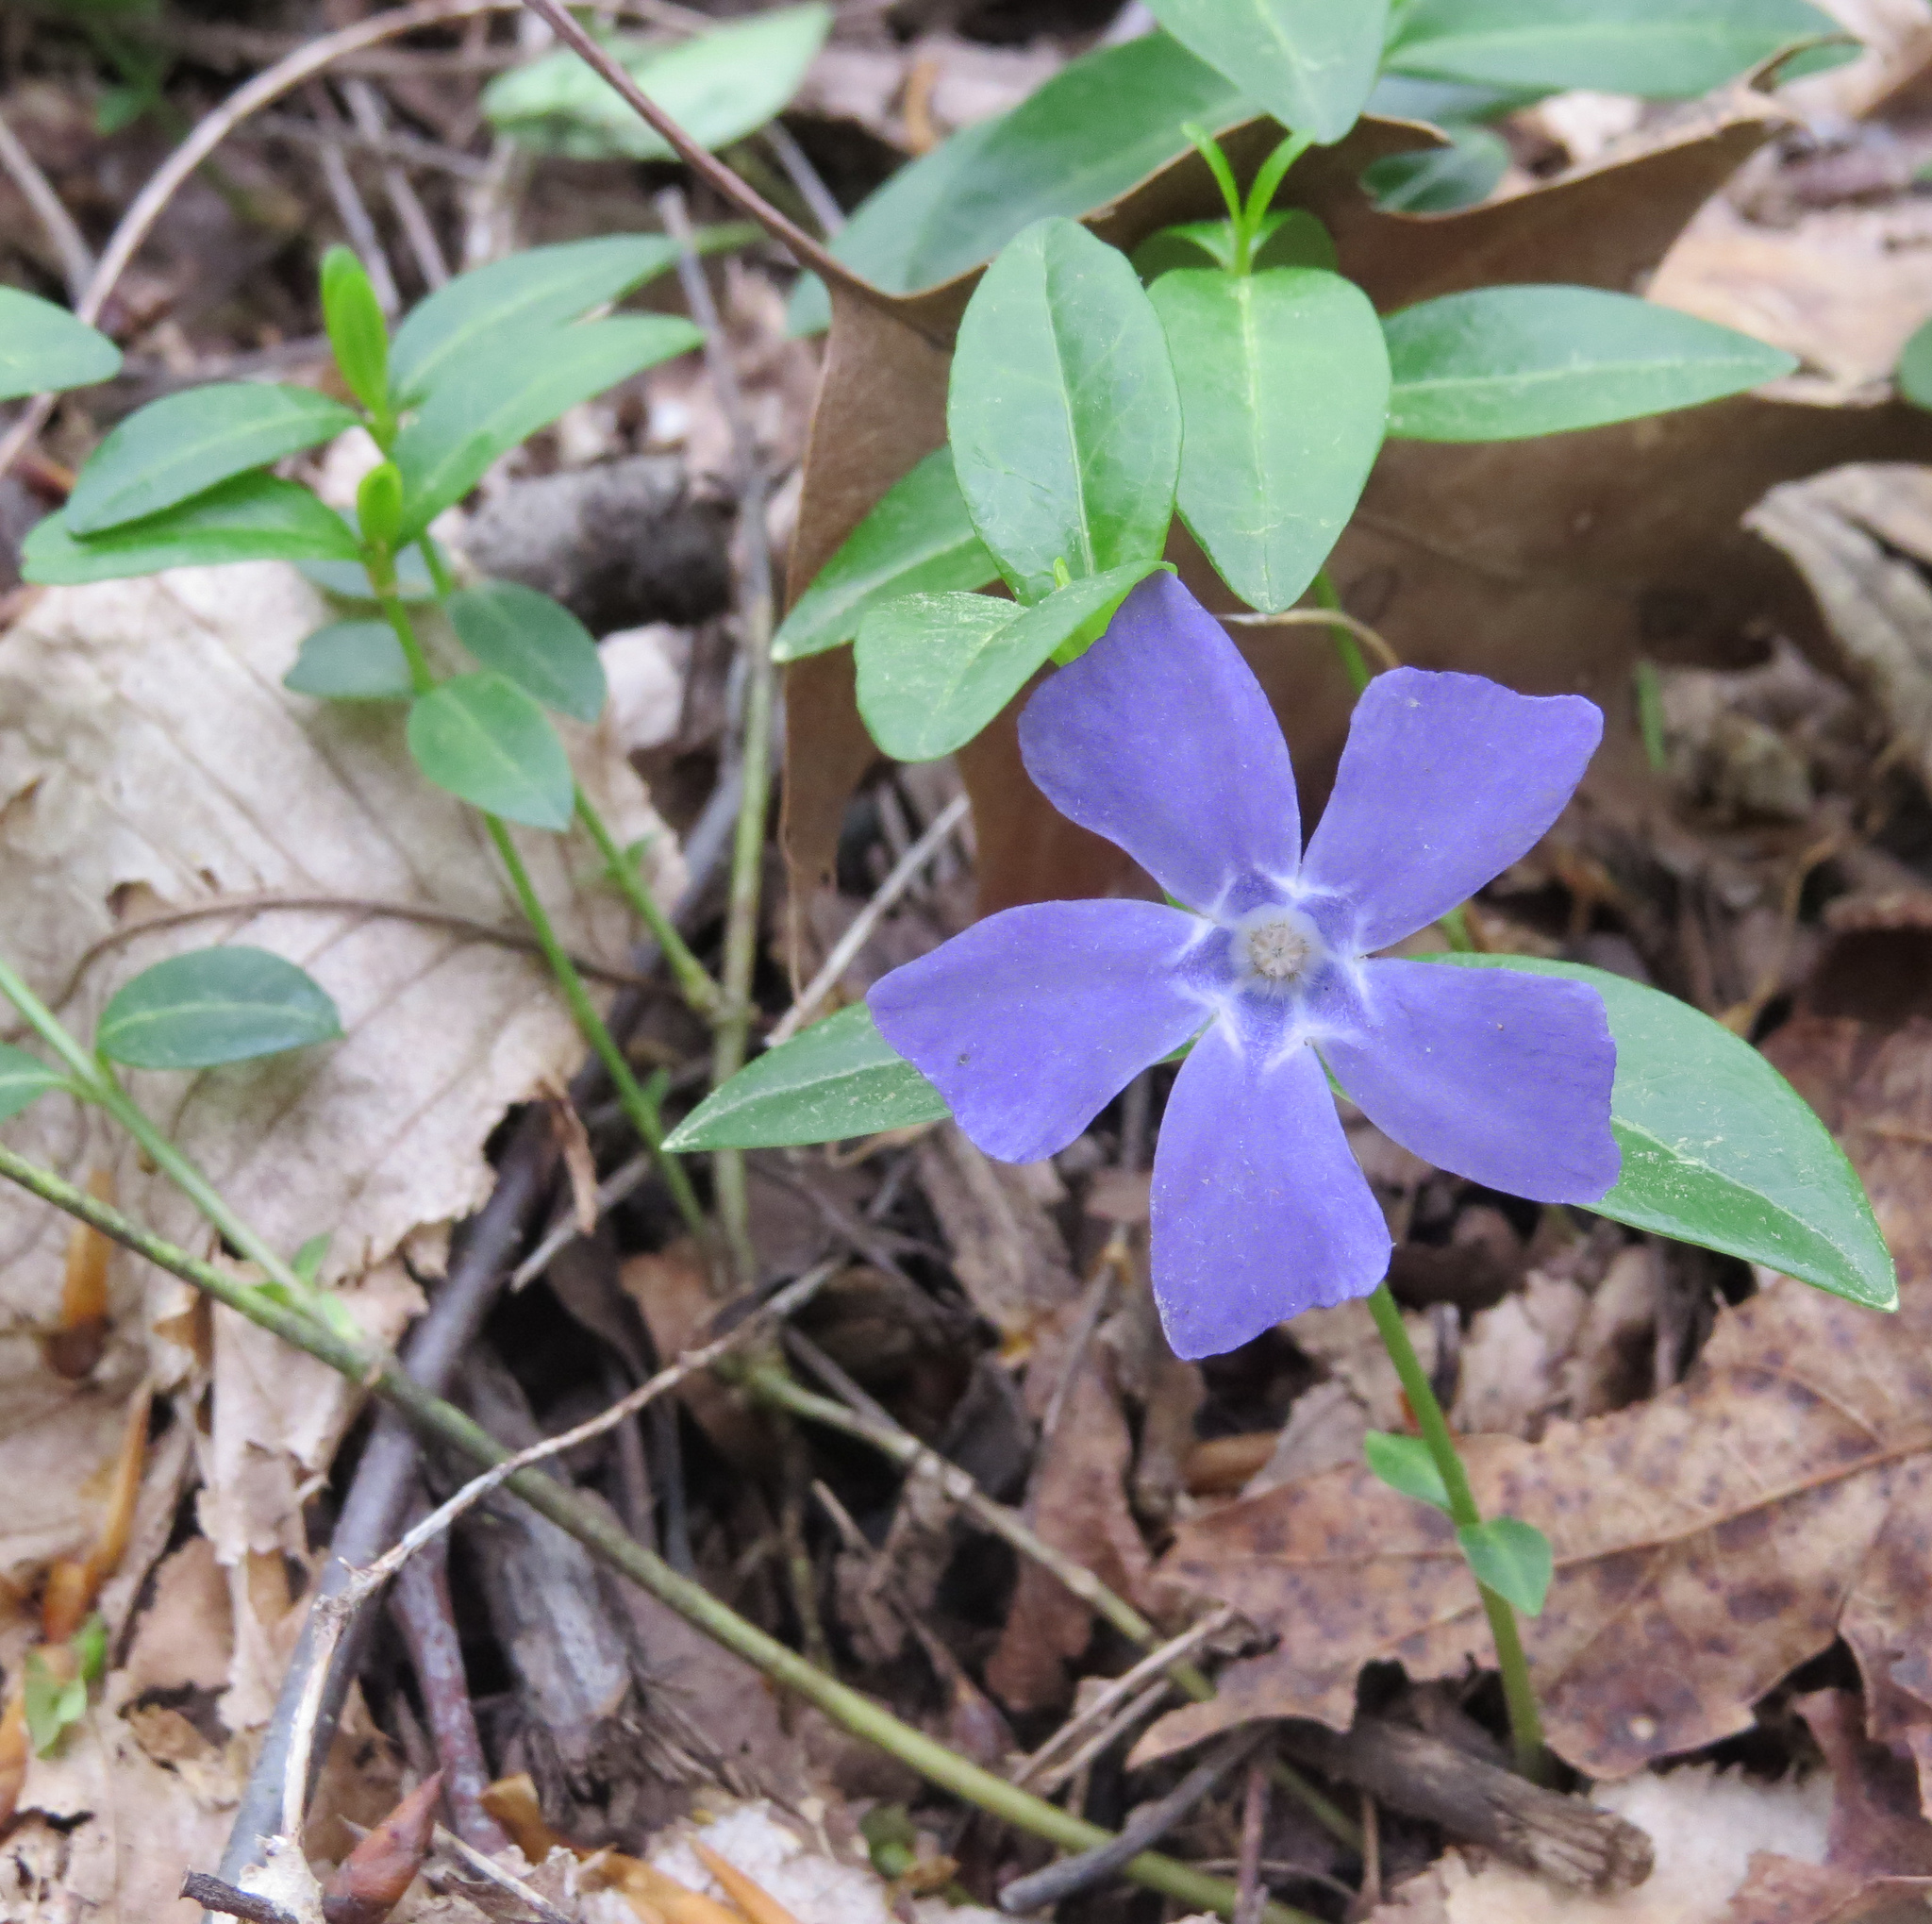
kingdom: Plantae
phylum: Tracheophyta
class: Magnoliopsida
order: Gentianales
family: Apocynaceae
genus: Vinca
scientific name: Vinca minor
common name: Lesser periwinkle
